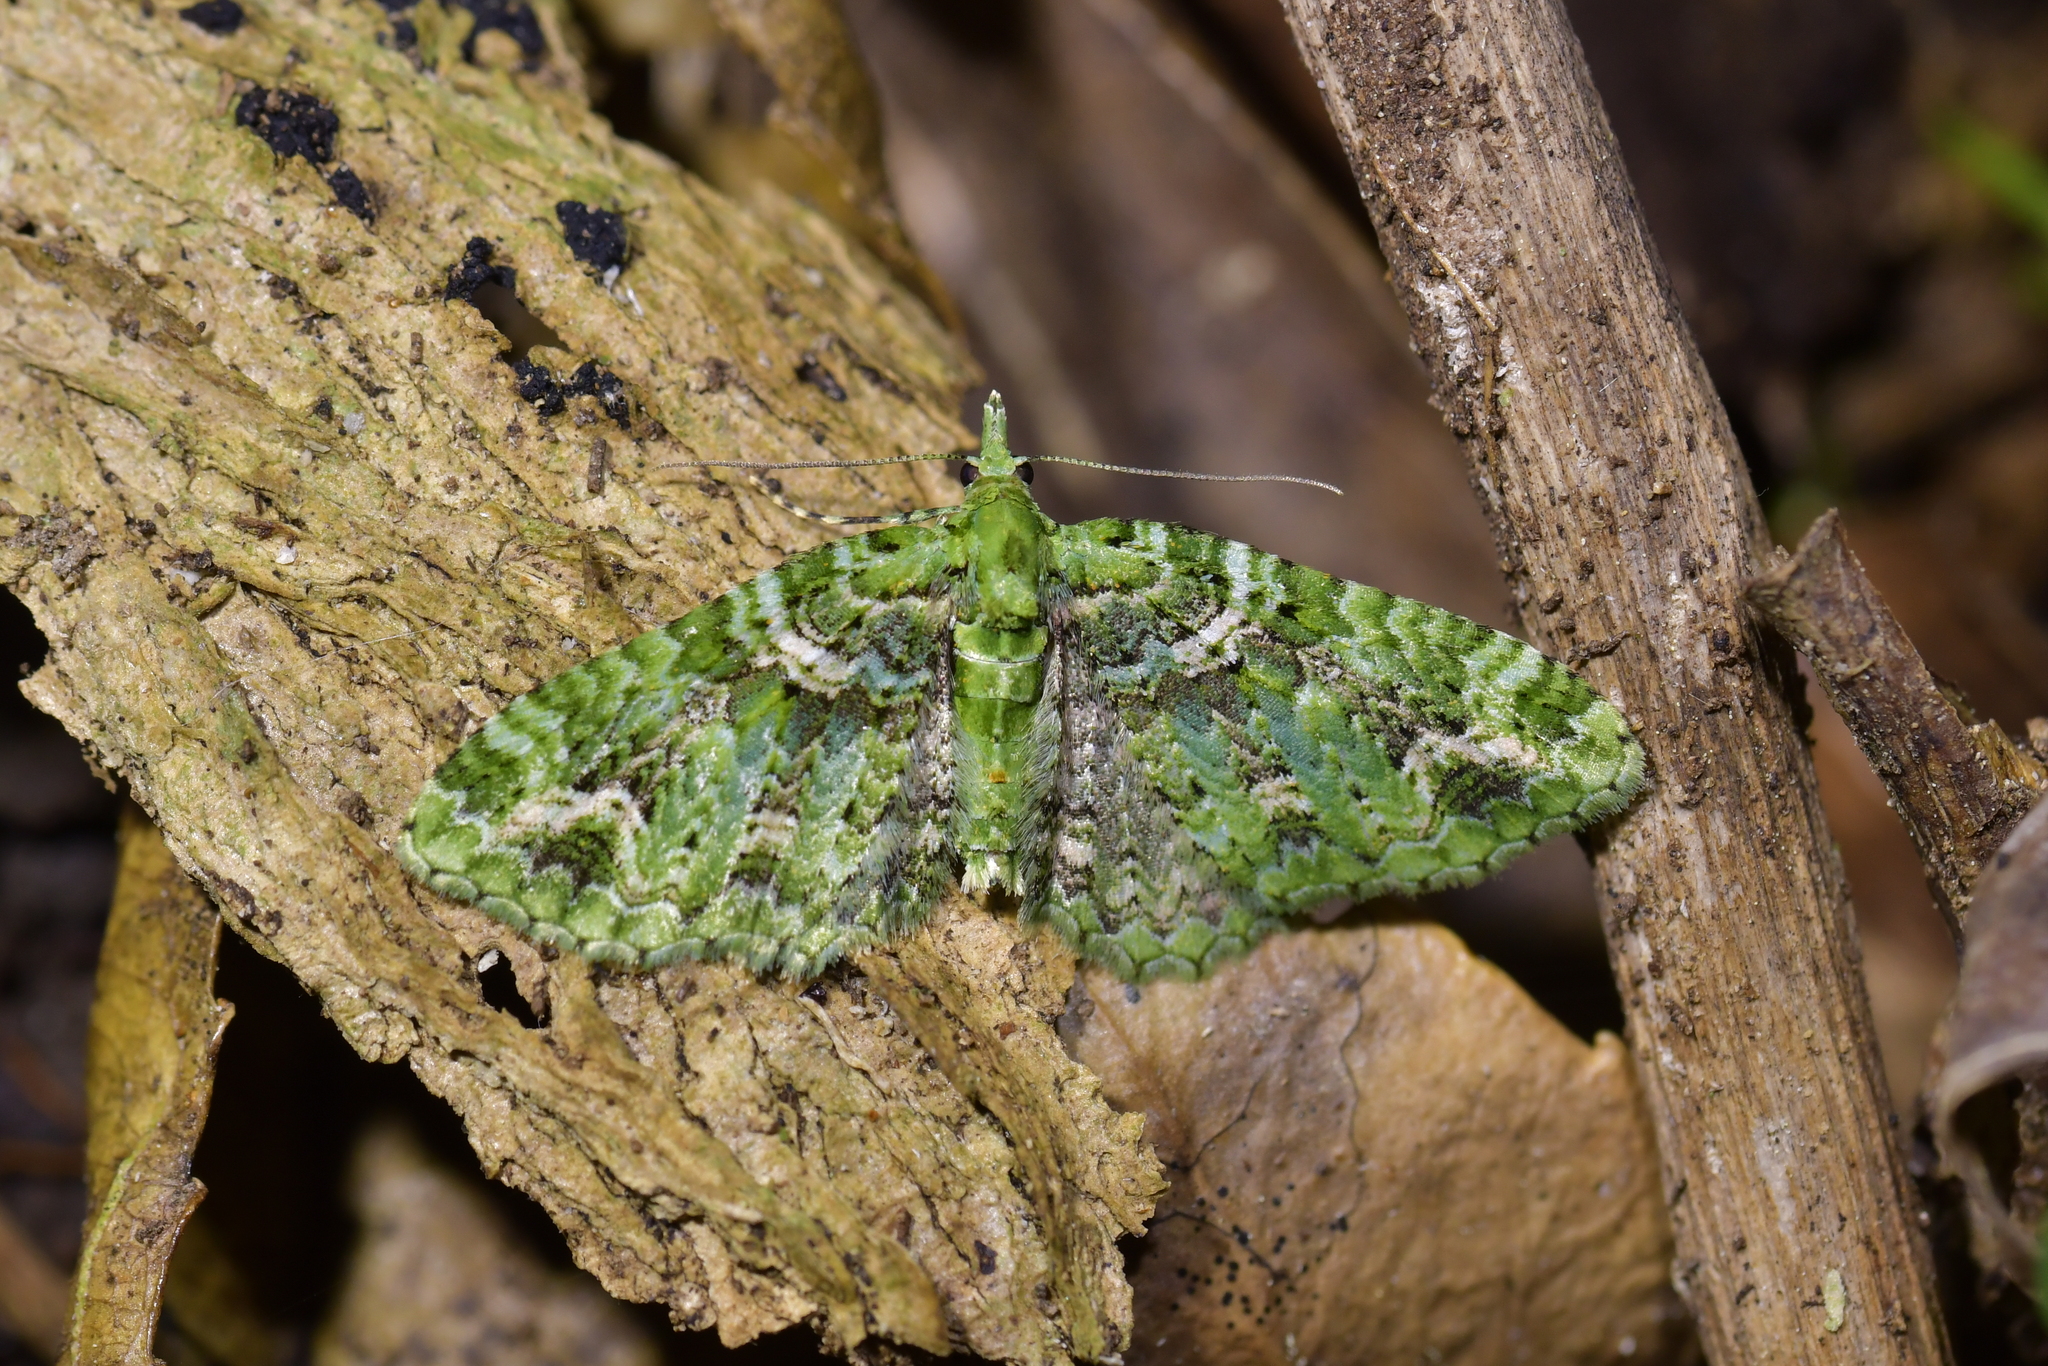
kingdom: Animalia
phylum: Arthropoda
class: Insecta
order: Lepidoptera
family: Geometridae
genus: Pasiphila
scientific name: Pasiphila muscosata
